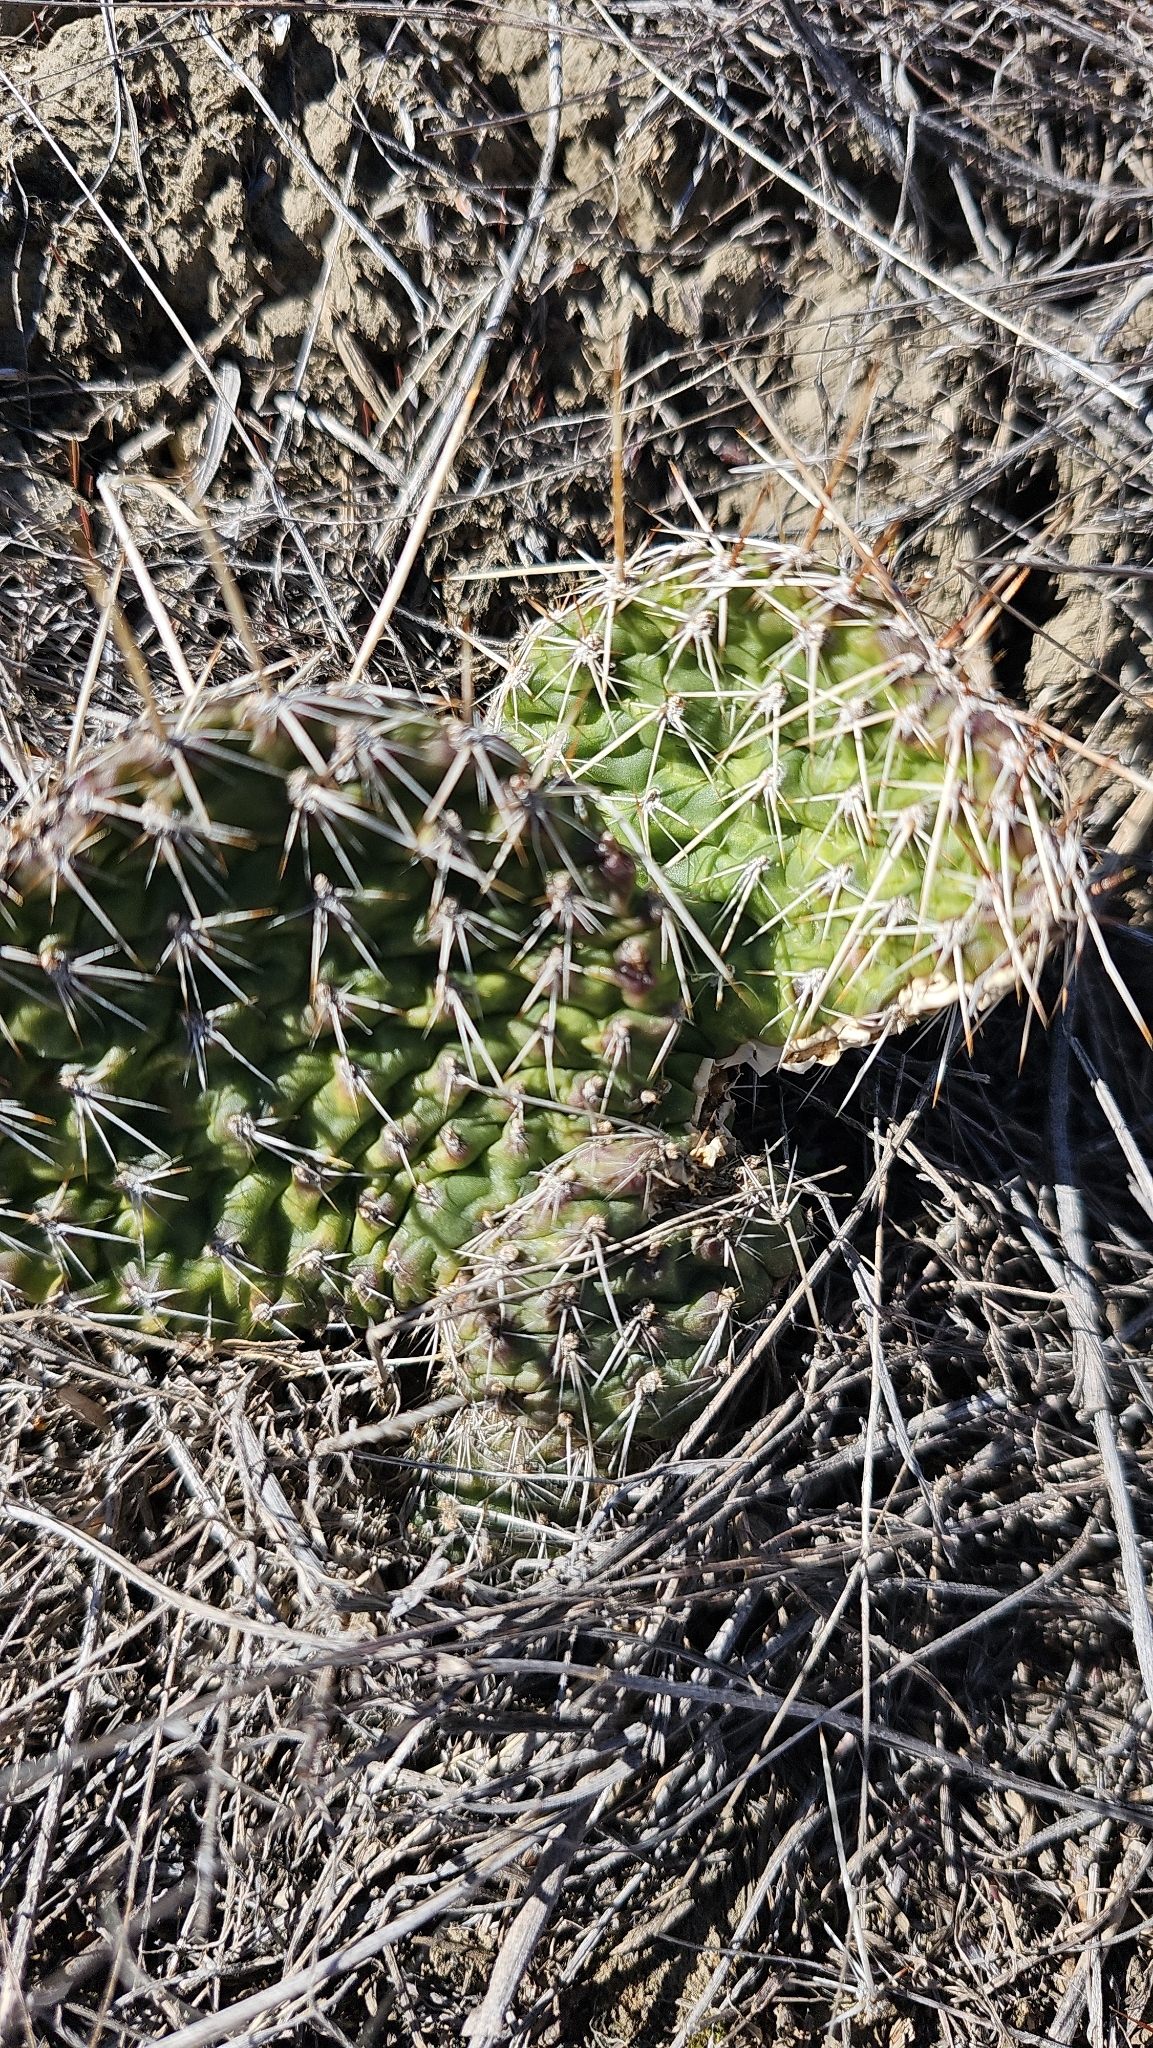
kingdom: Plantae
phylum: Tracheophyta
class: Magnoliopsida
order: Caryophyllales
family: Cactaceae
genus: Opuntia
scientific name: Opuntia polyacantha
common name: Plains prickly-pear
